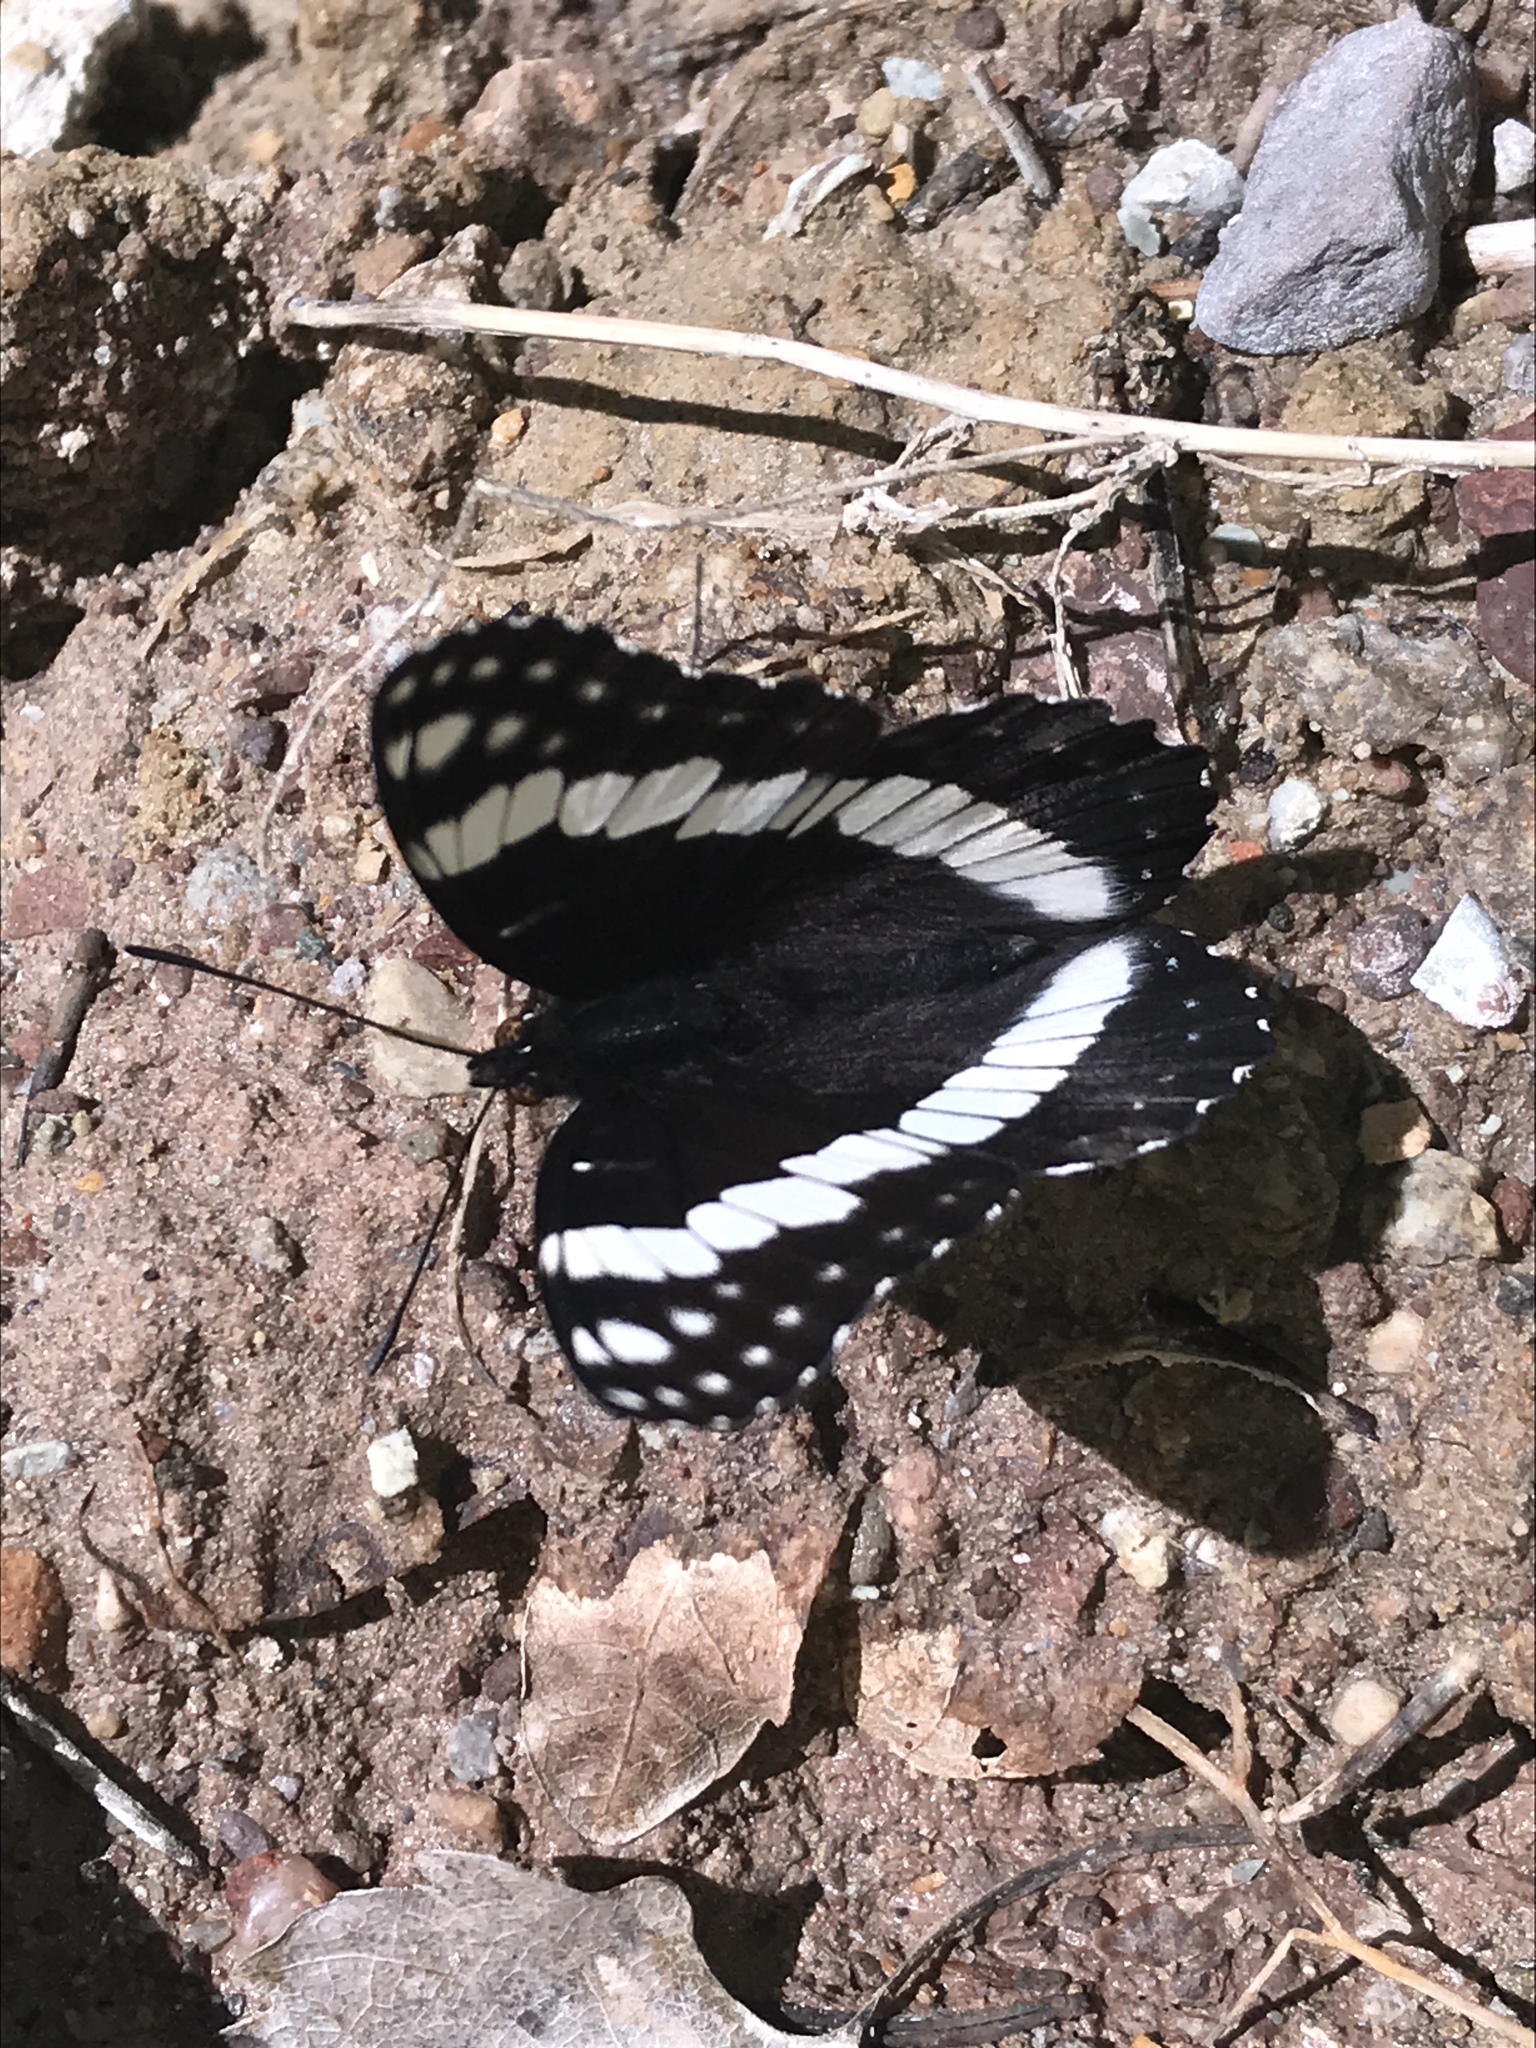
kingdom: Animalia
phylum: Arthropoda
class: Insecta
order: Lepidoptera
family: Nymphalidae
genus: Limenitis
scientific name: Limenitis weidemeyerii
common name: Weidemeyer's admiral
